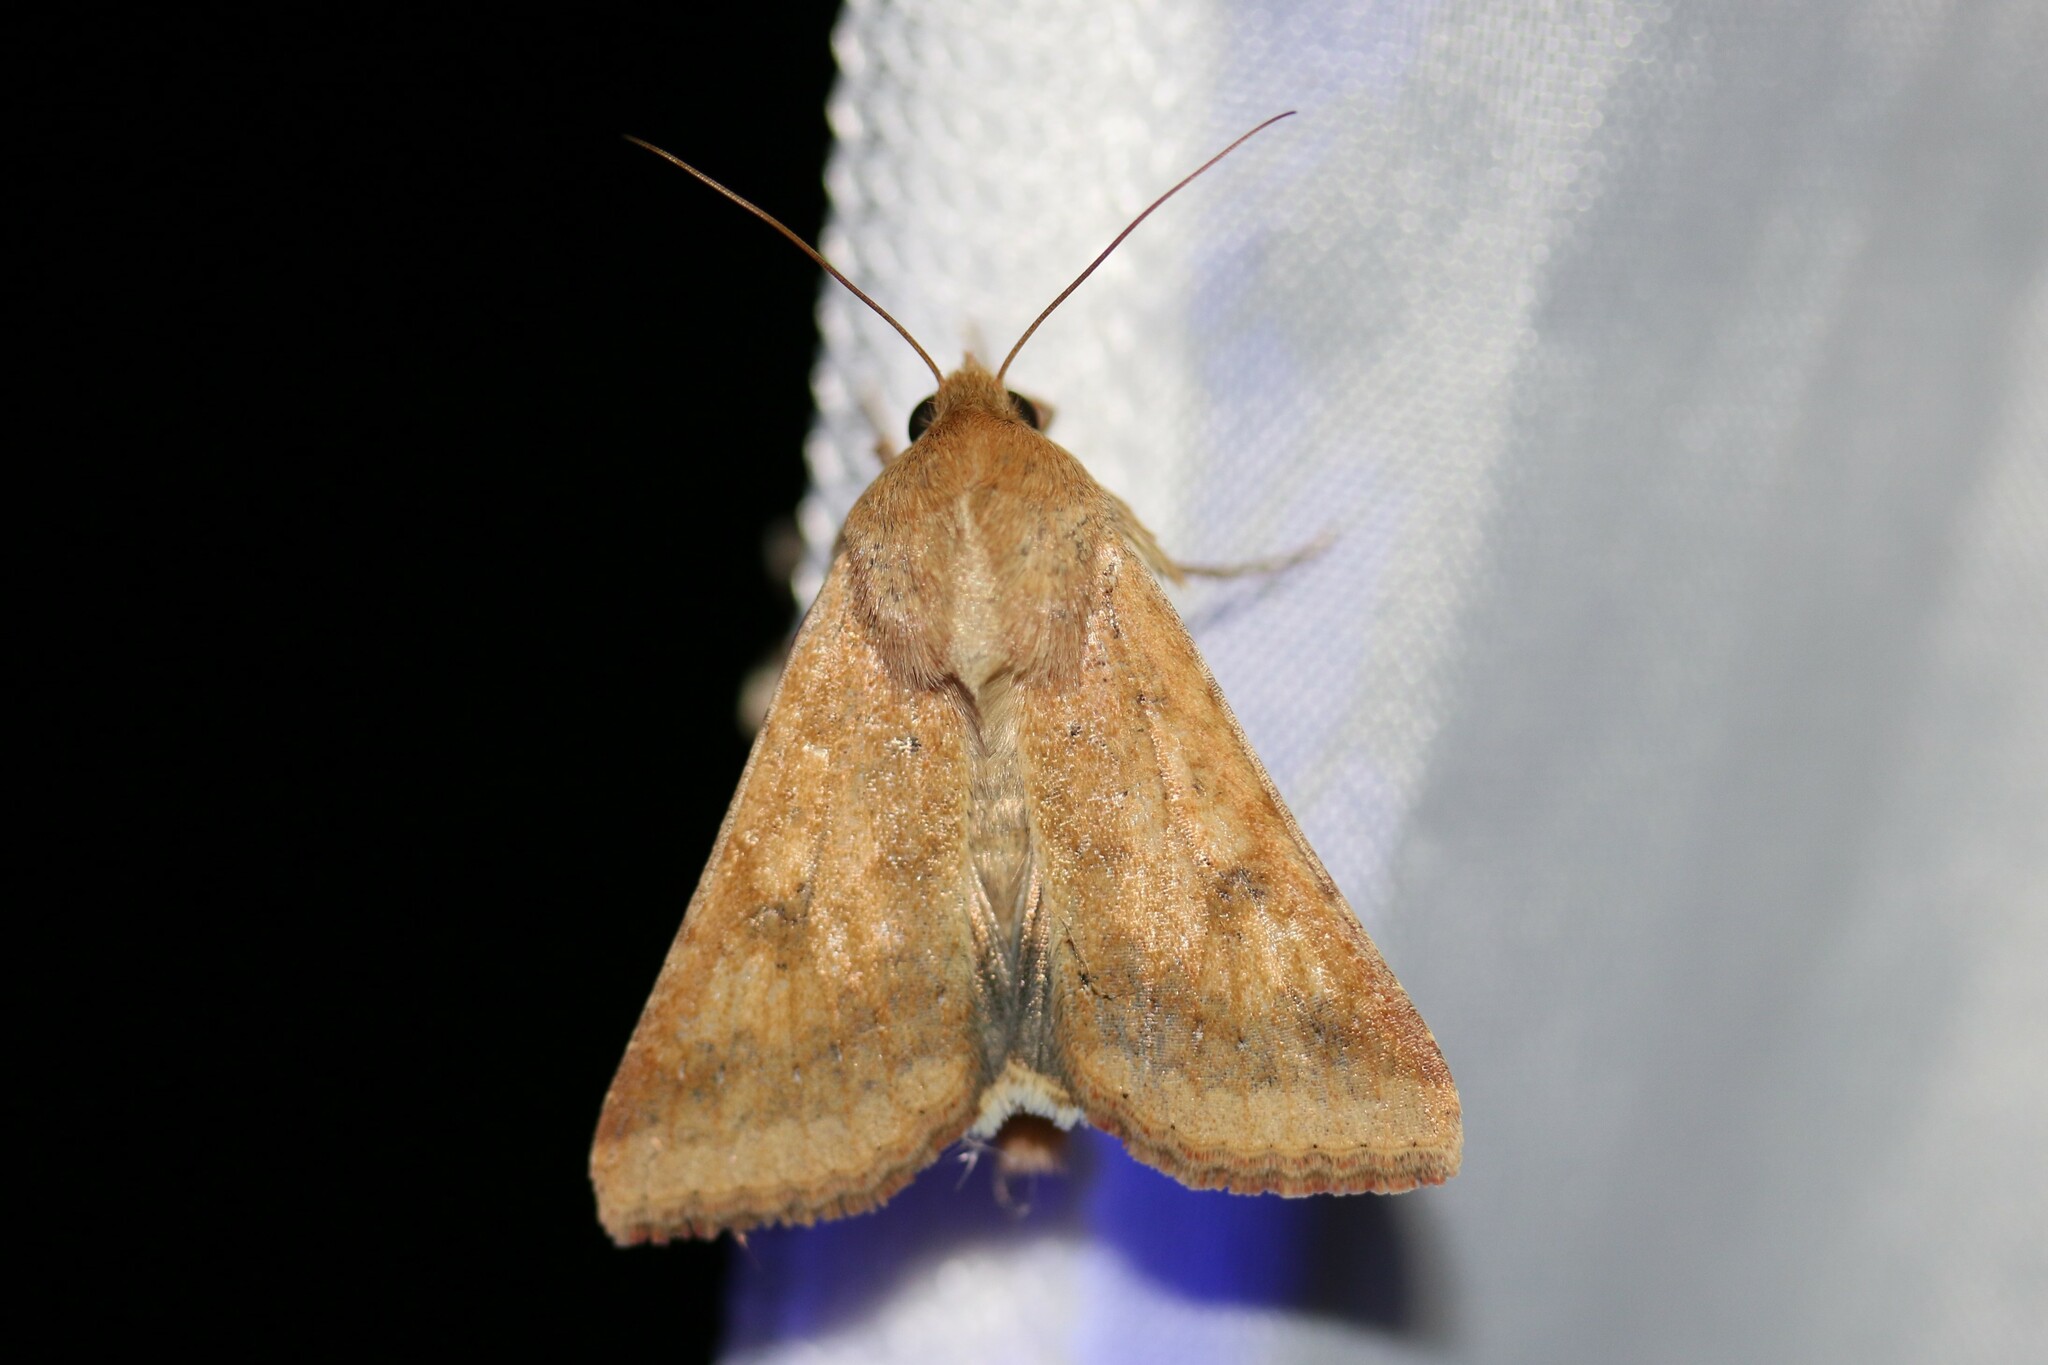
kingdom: Animalia
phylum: Arthropoda
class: Insecta
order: Lepidoptera
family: Noctuidae
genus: Helicoverpa
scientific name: Helicoverpa armigera
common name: Cotton bollworm
